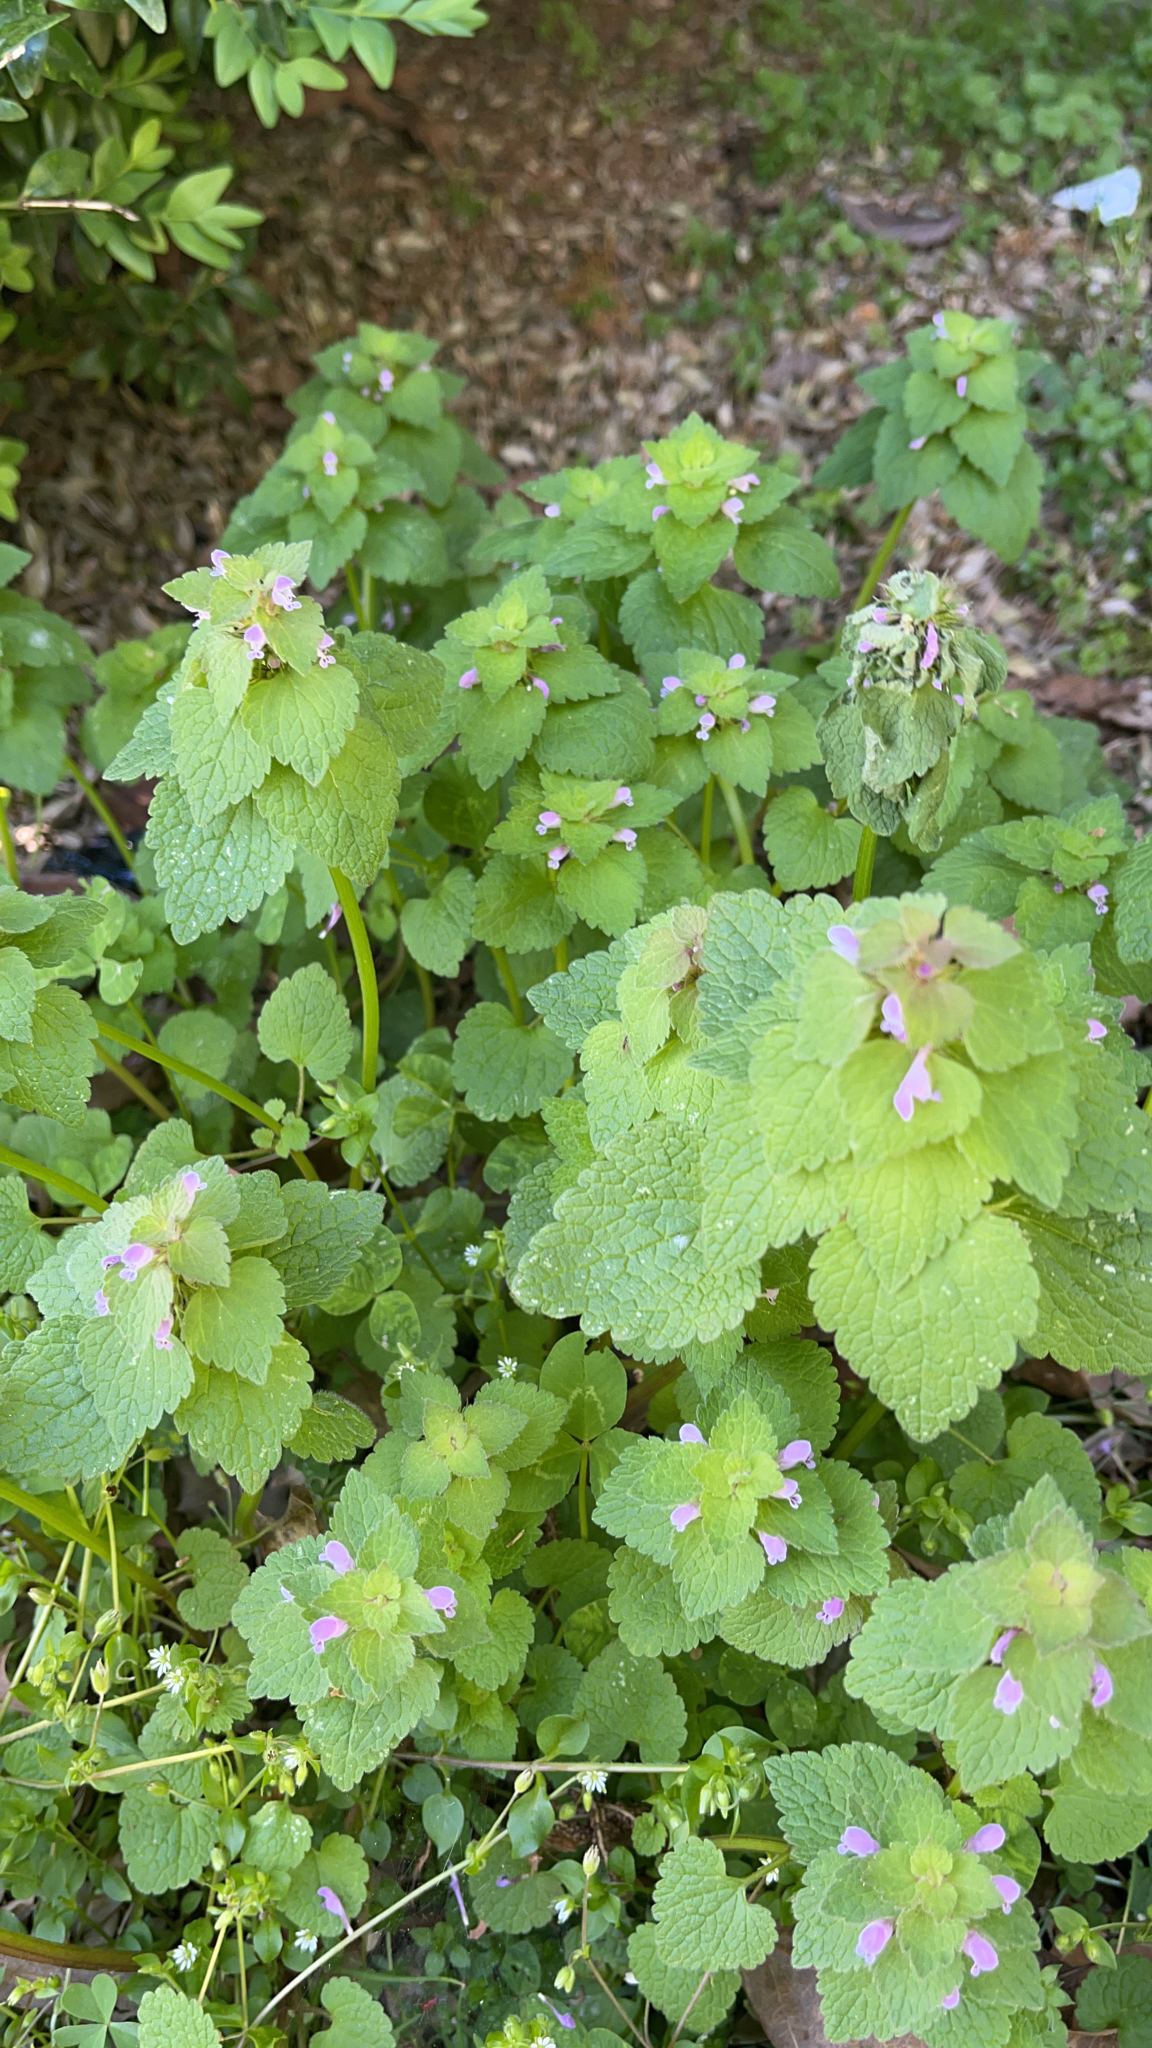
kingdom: Plantae
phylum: Tracheophyta
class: Magnoliopsida
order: Lamiales
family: Lamiaceae
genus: Lamium
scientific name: Lamium purpureum
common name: Red dead-nettle
